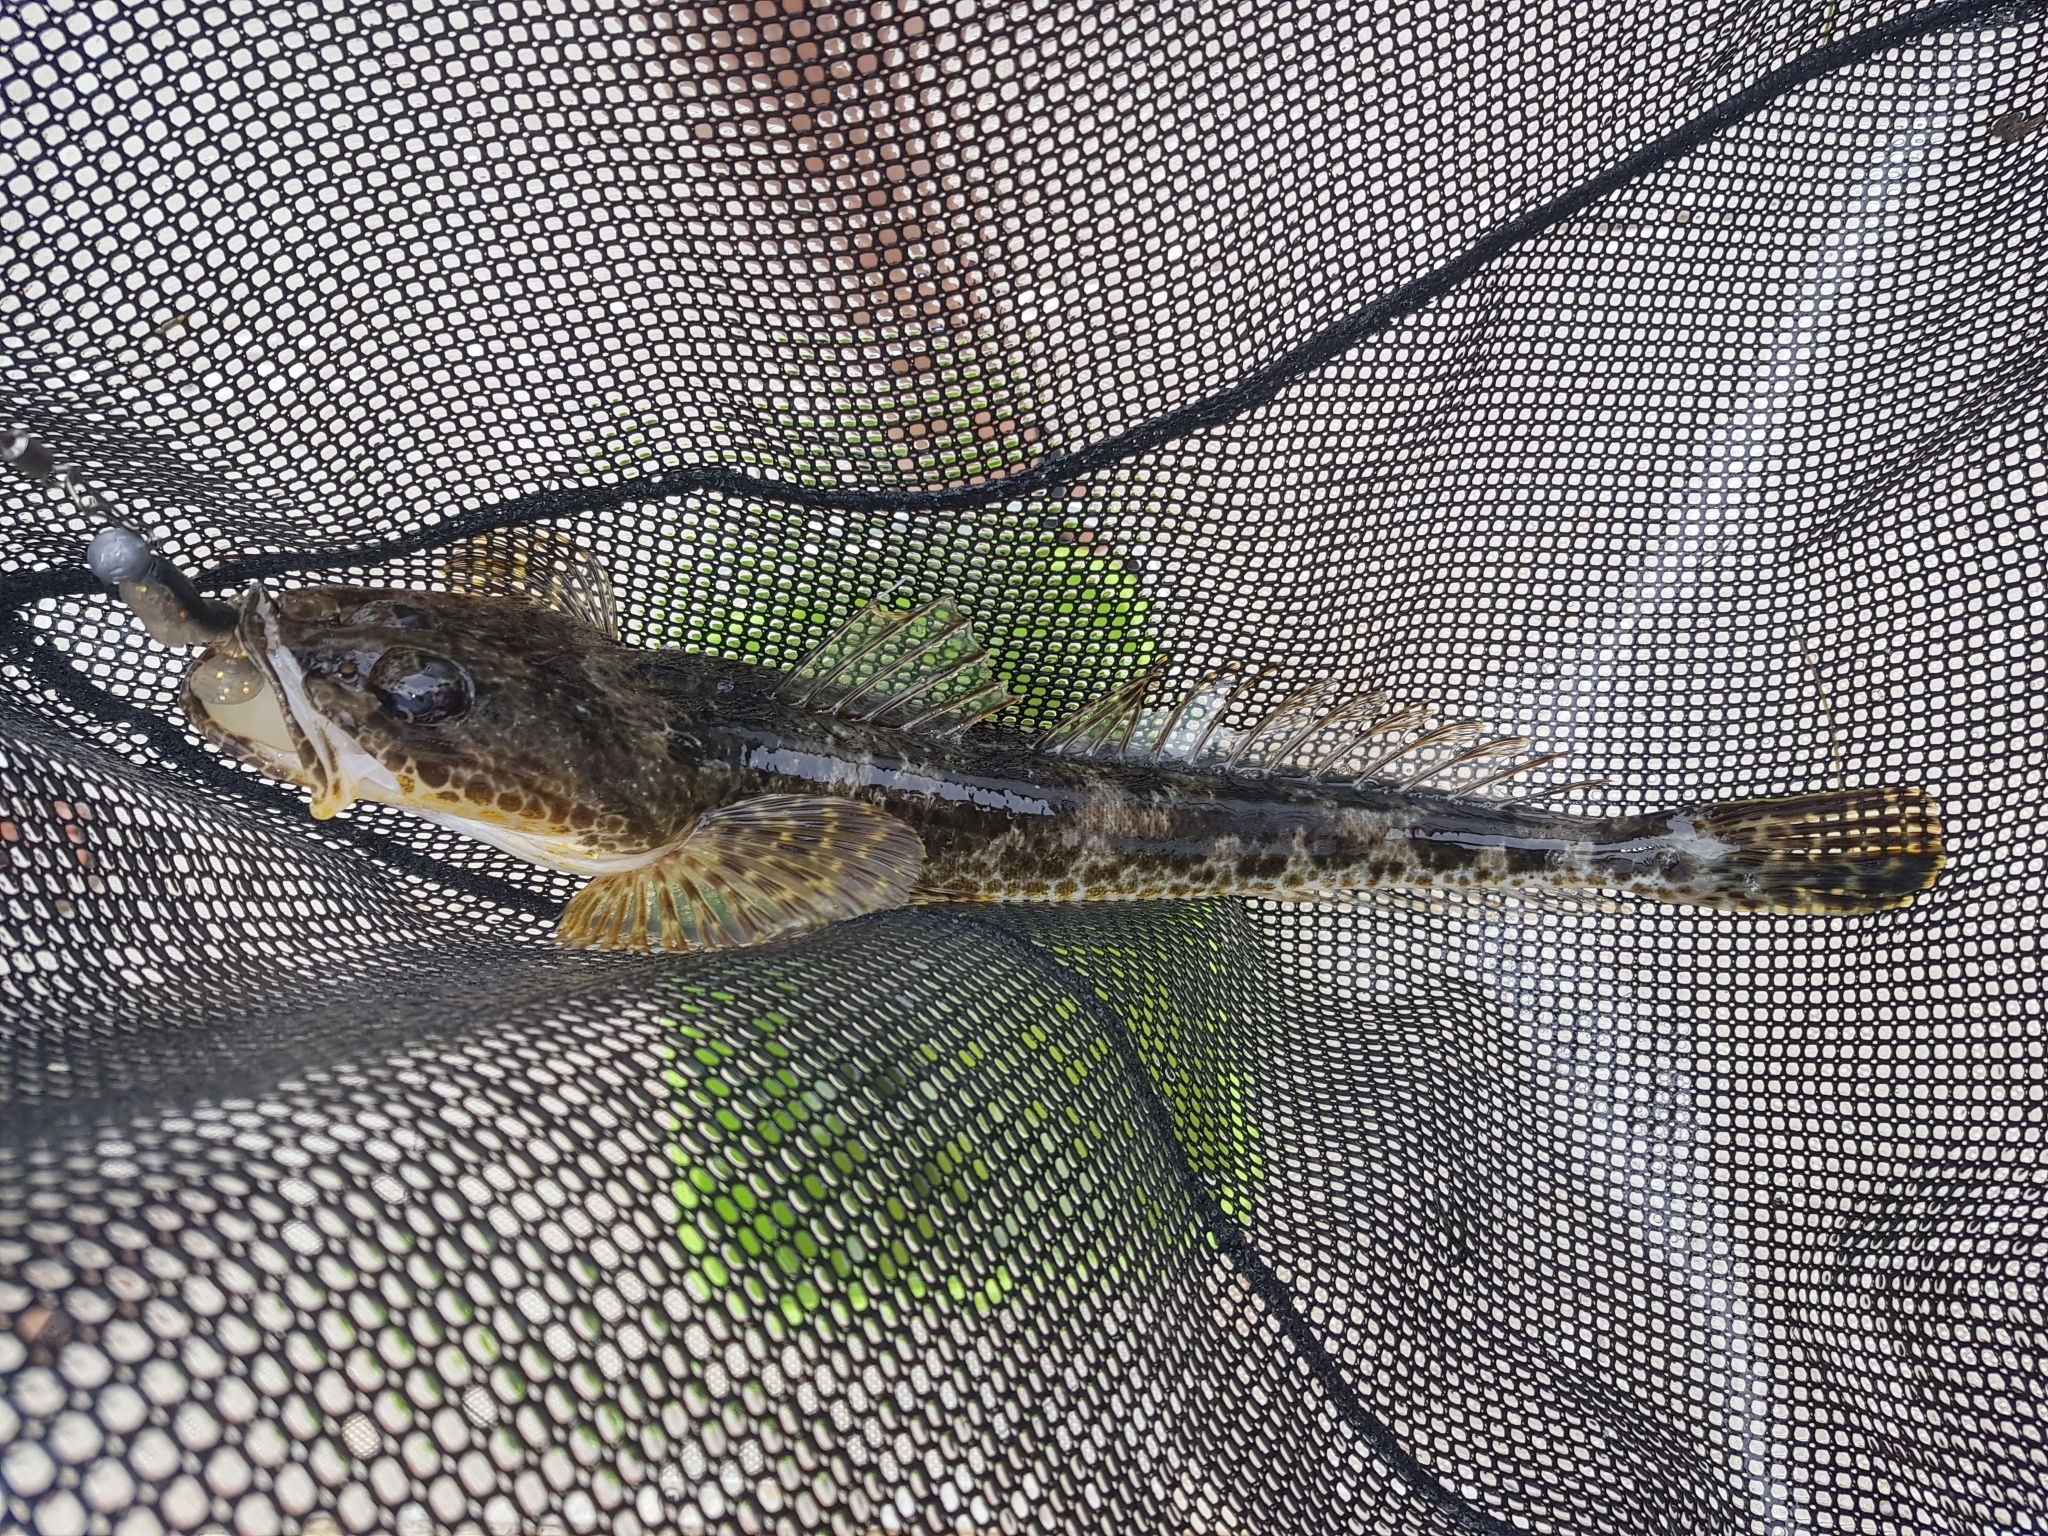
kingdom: Animalia
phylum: Chordata
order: Scorpaeniformes
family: Platycephalidae
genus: Platycephalus
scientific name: Platycephalus laevigatus
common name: Rock flathead
